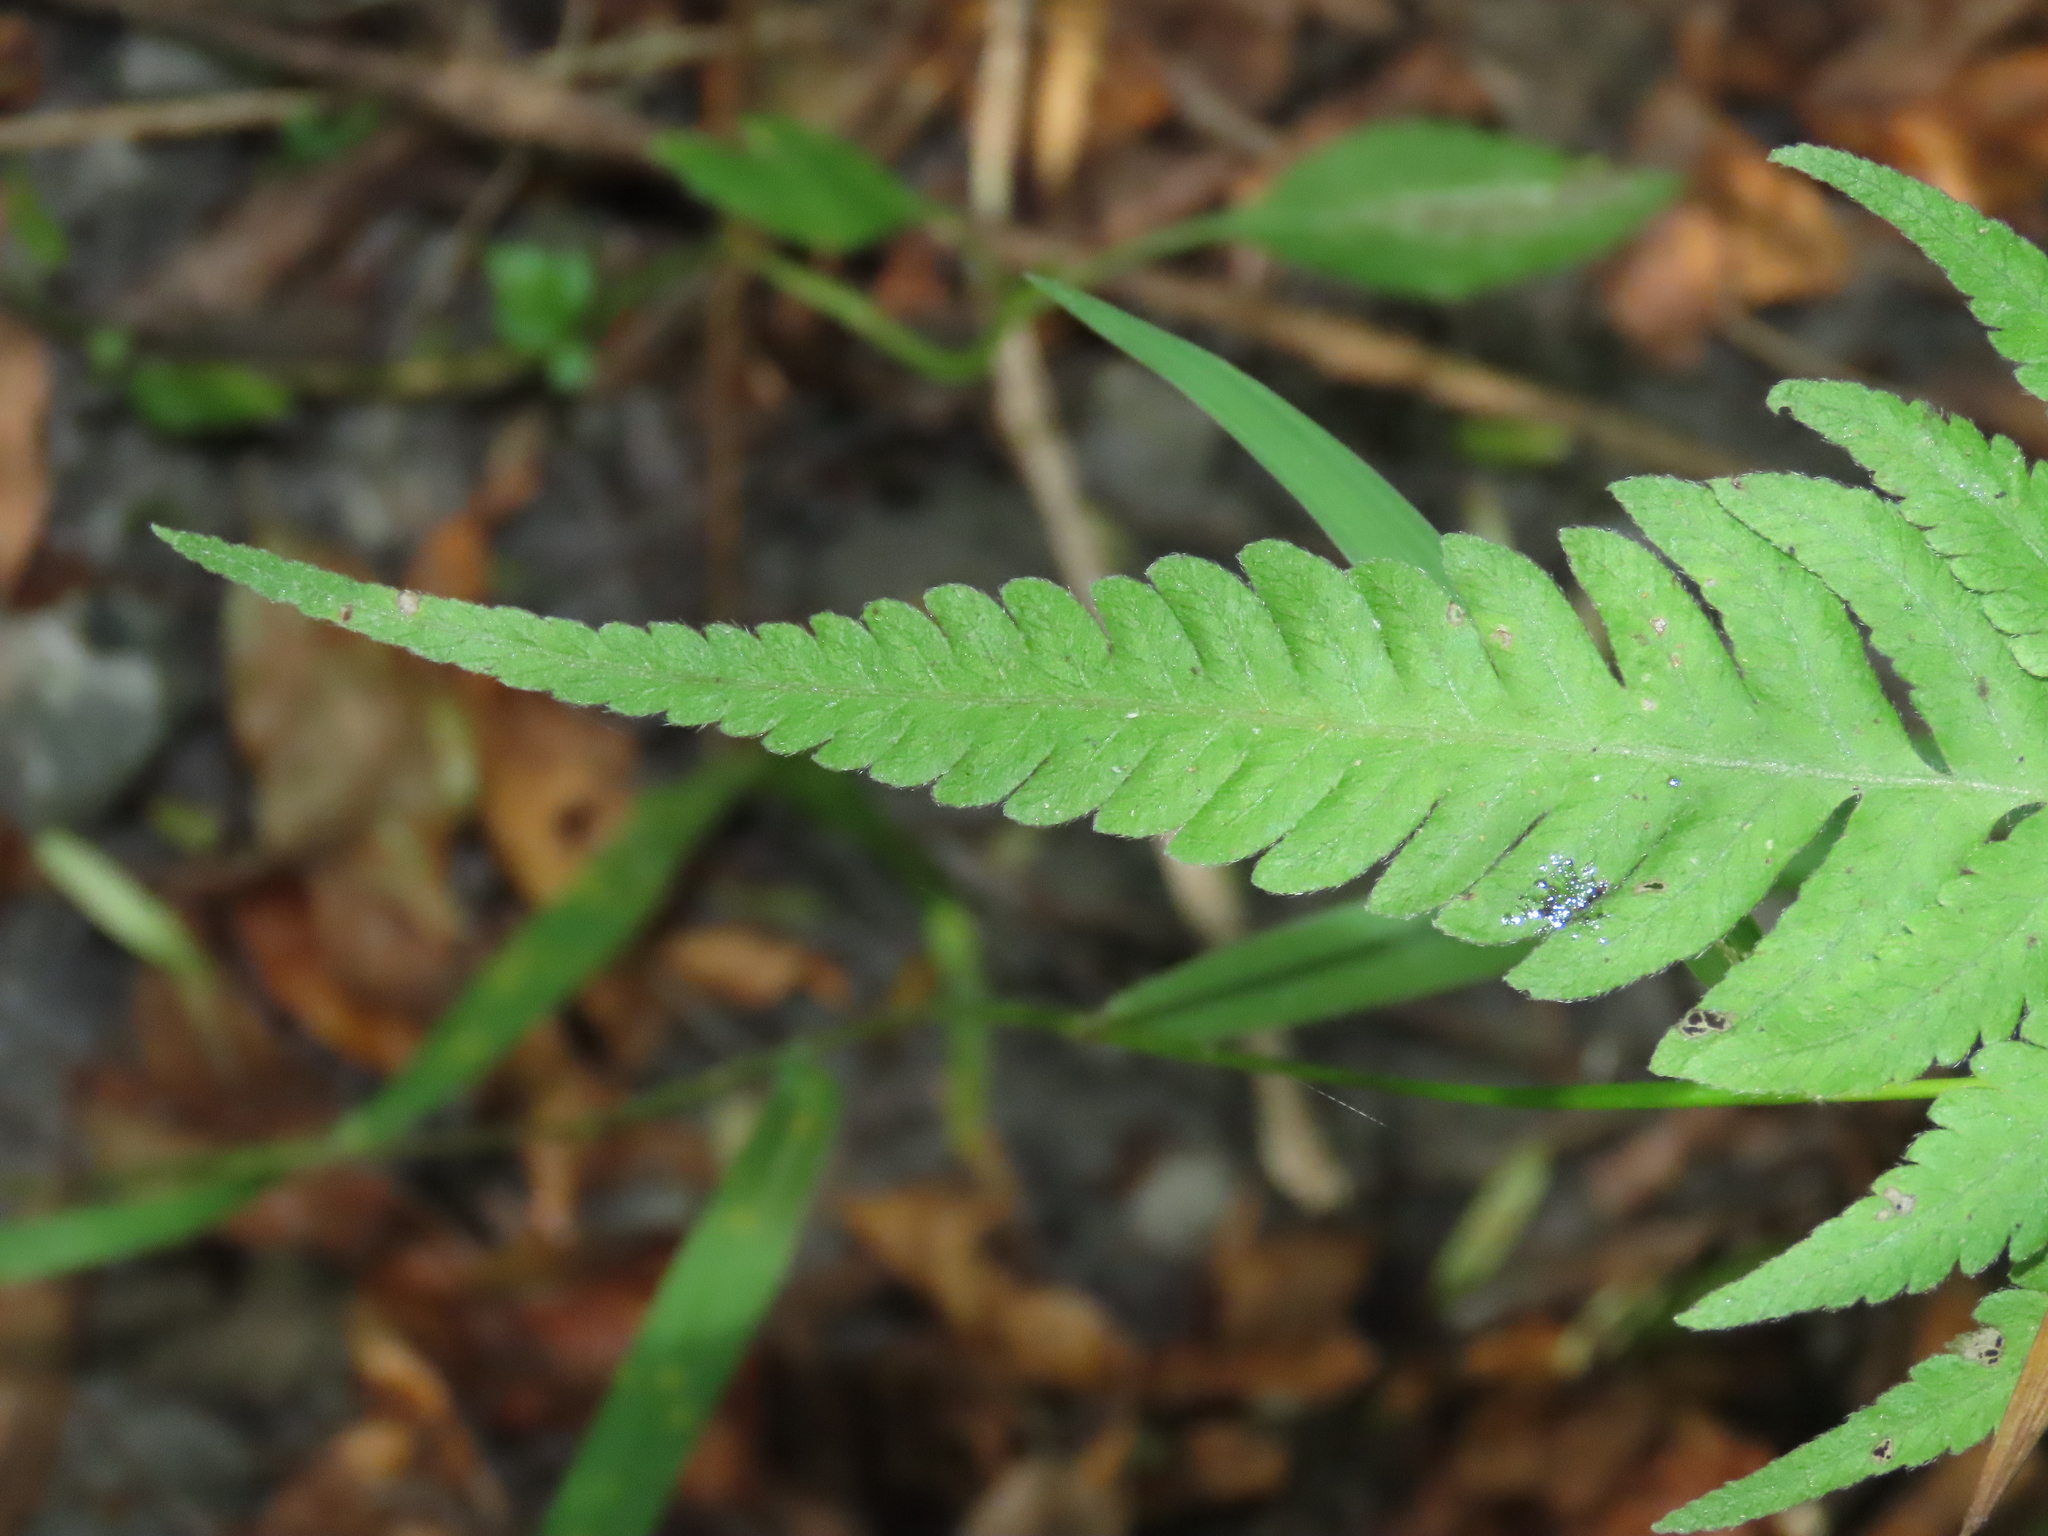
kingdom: Plantae
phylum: Tracheophyta
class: Polypodiopsida
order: Polypodiales
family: Thelypteridaceae
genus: Christella
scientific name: Christella parasitica
